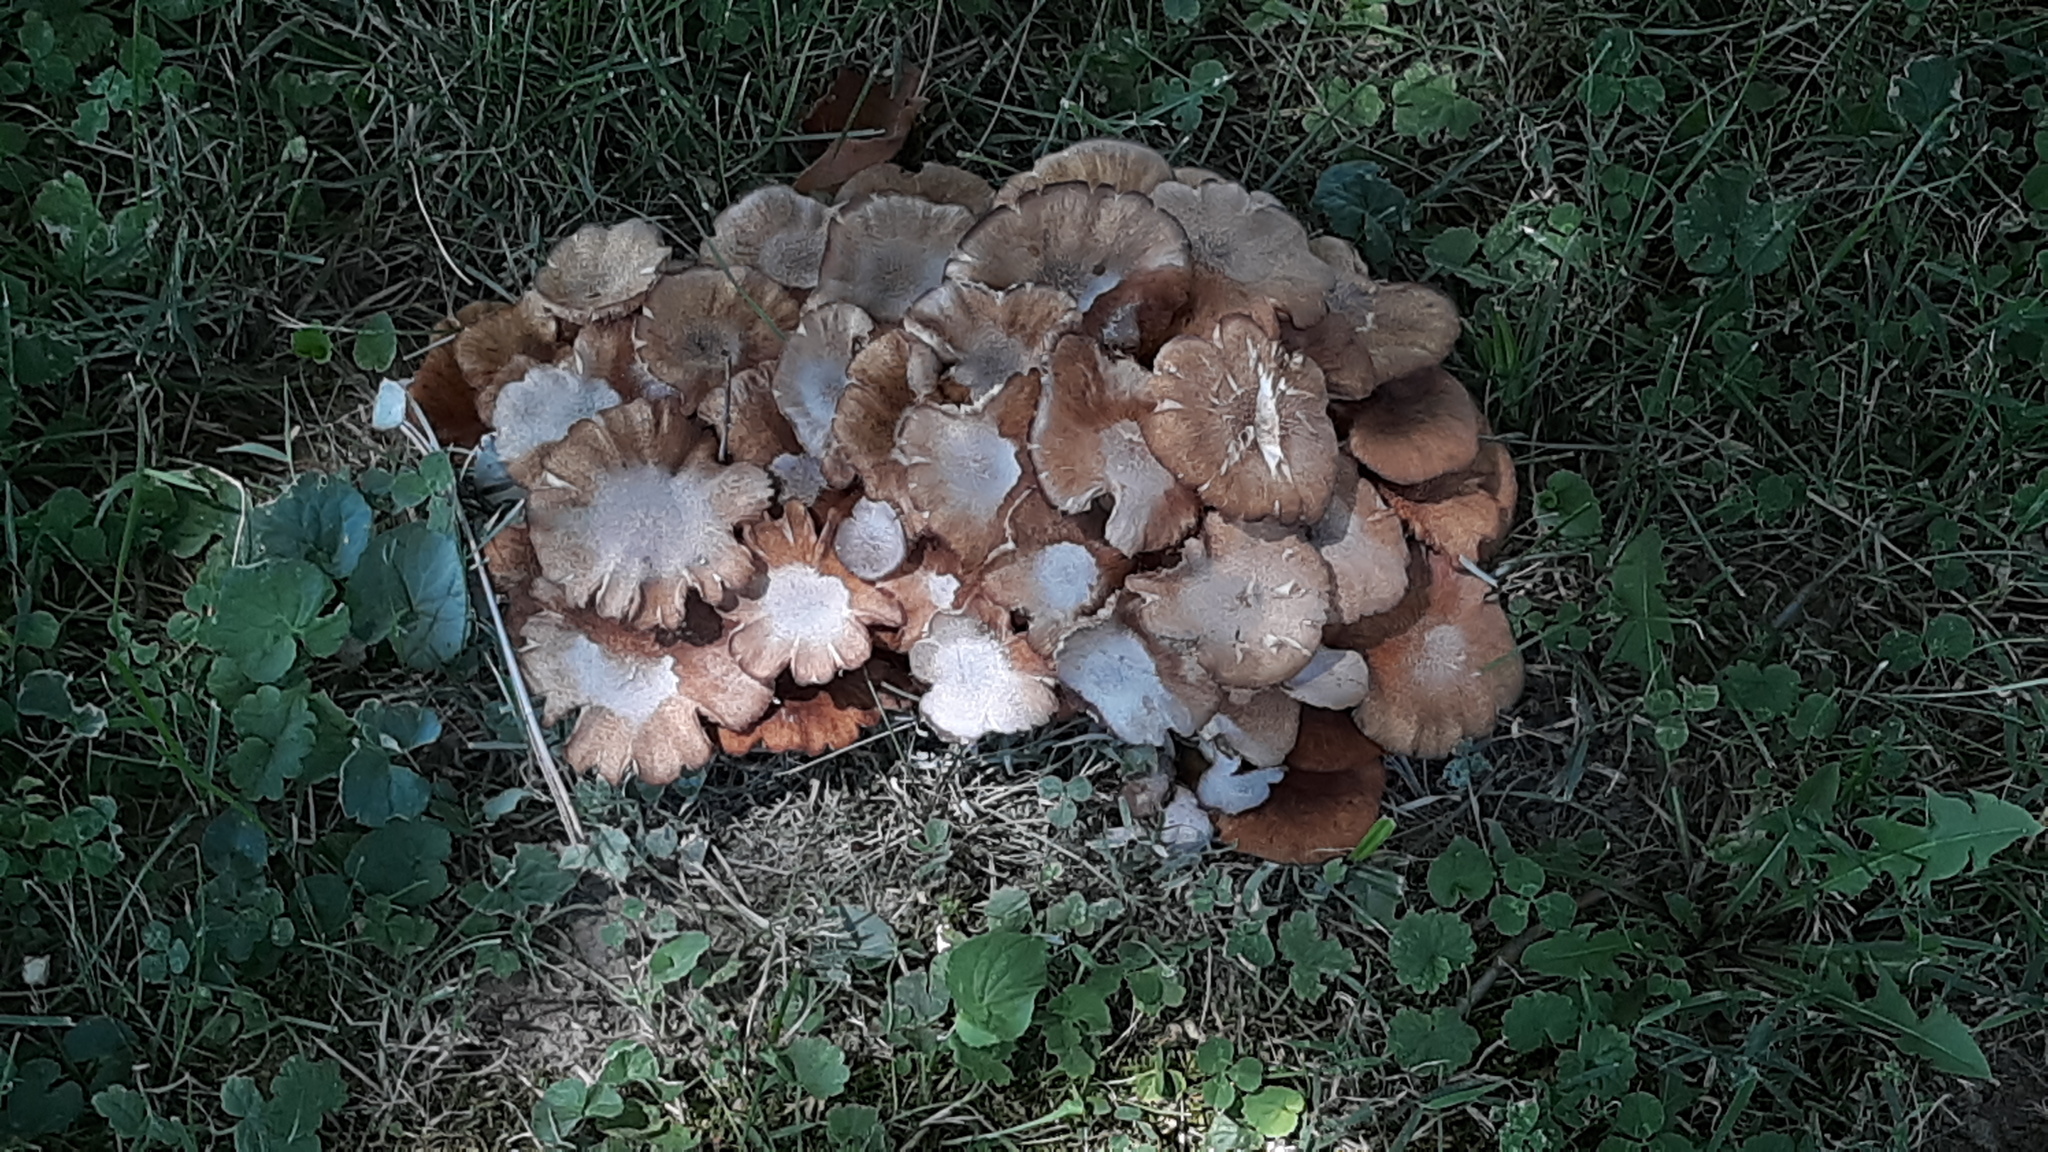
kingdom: Fungi
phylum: Basidiomycota
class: Agaricomycetes
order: Agaricales
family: Physalacriaceae
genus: Desarmillaria
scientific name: Desarmillaria caespitosa
